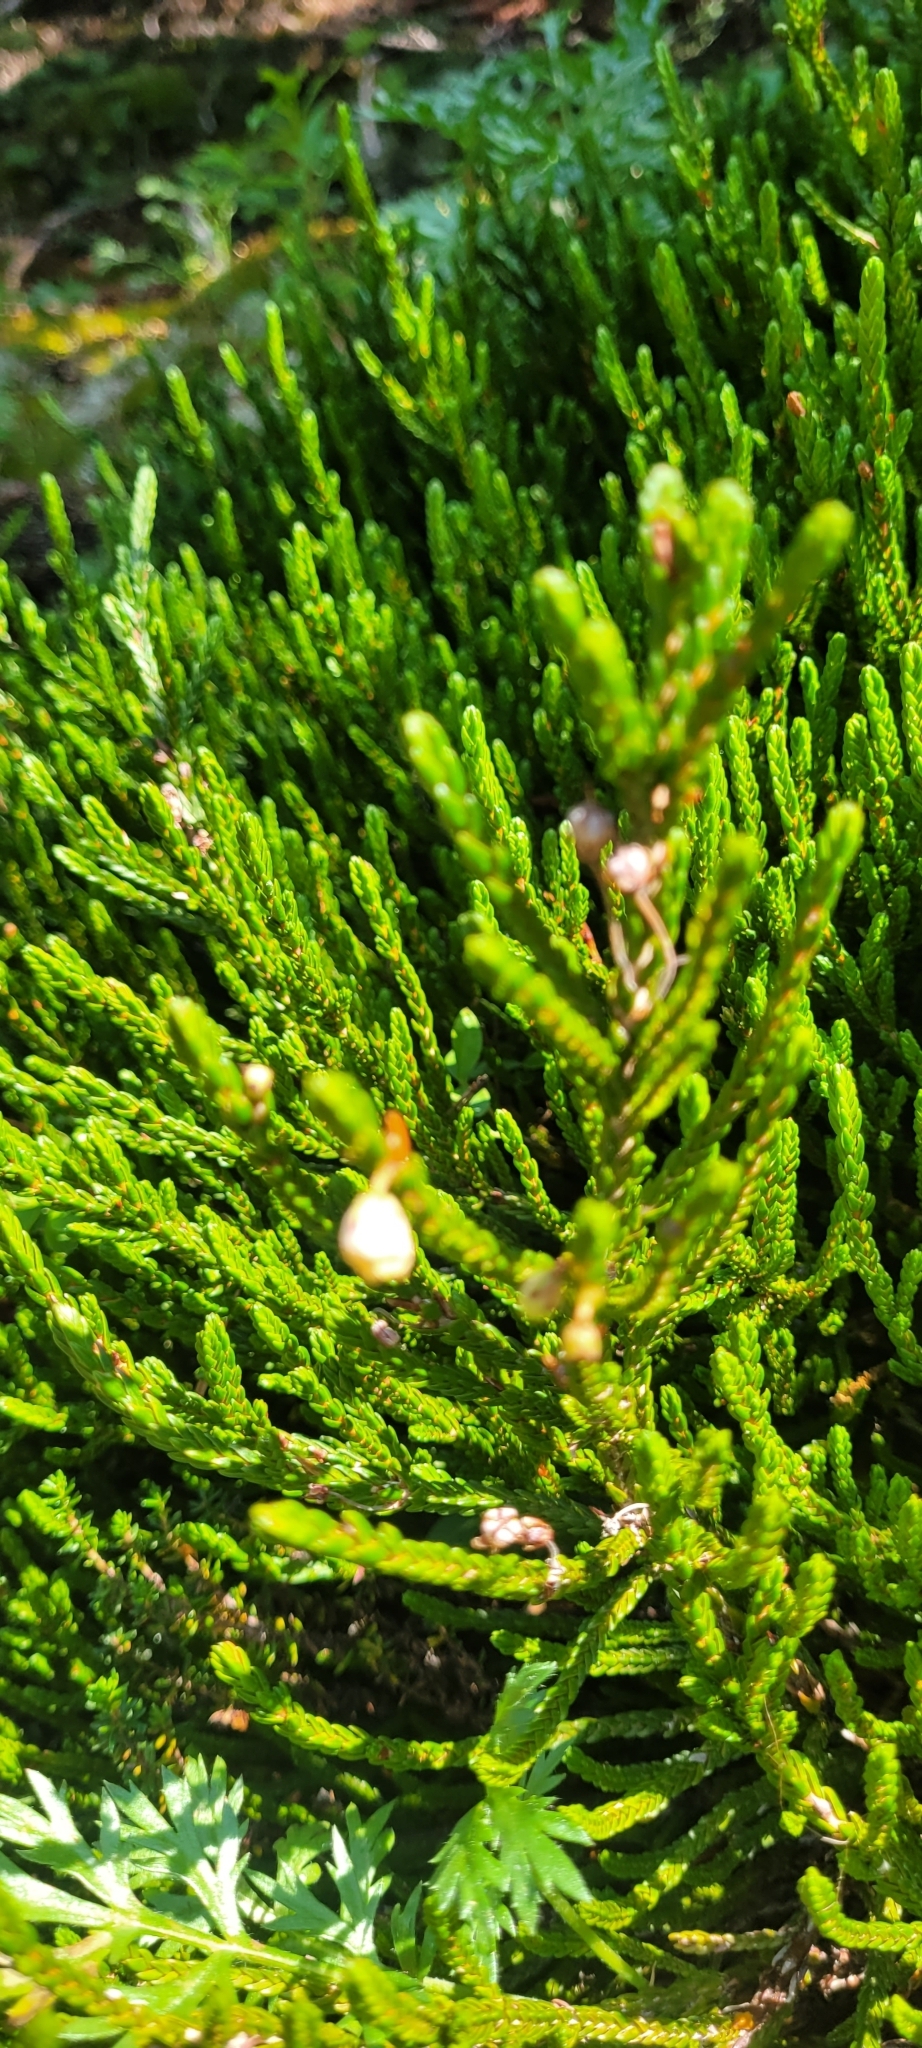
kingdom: Plantae
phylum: Tracheophyta
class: Magnoliopsida
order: Ericales
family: Ericaceae
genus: Cassiope
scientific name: Cassiope mertensiana
